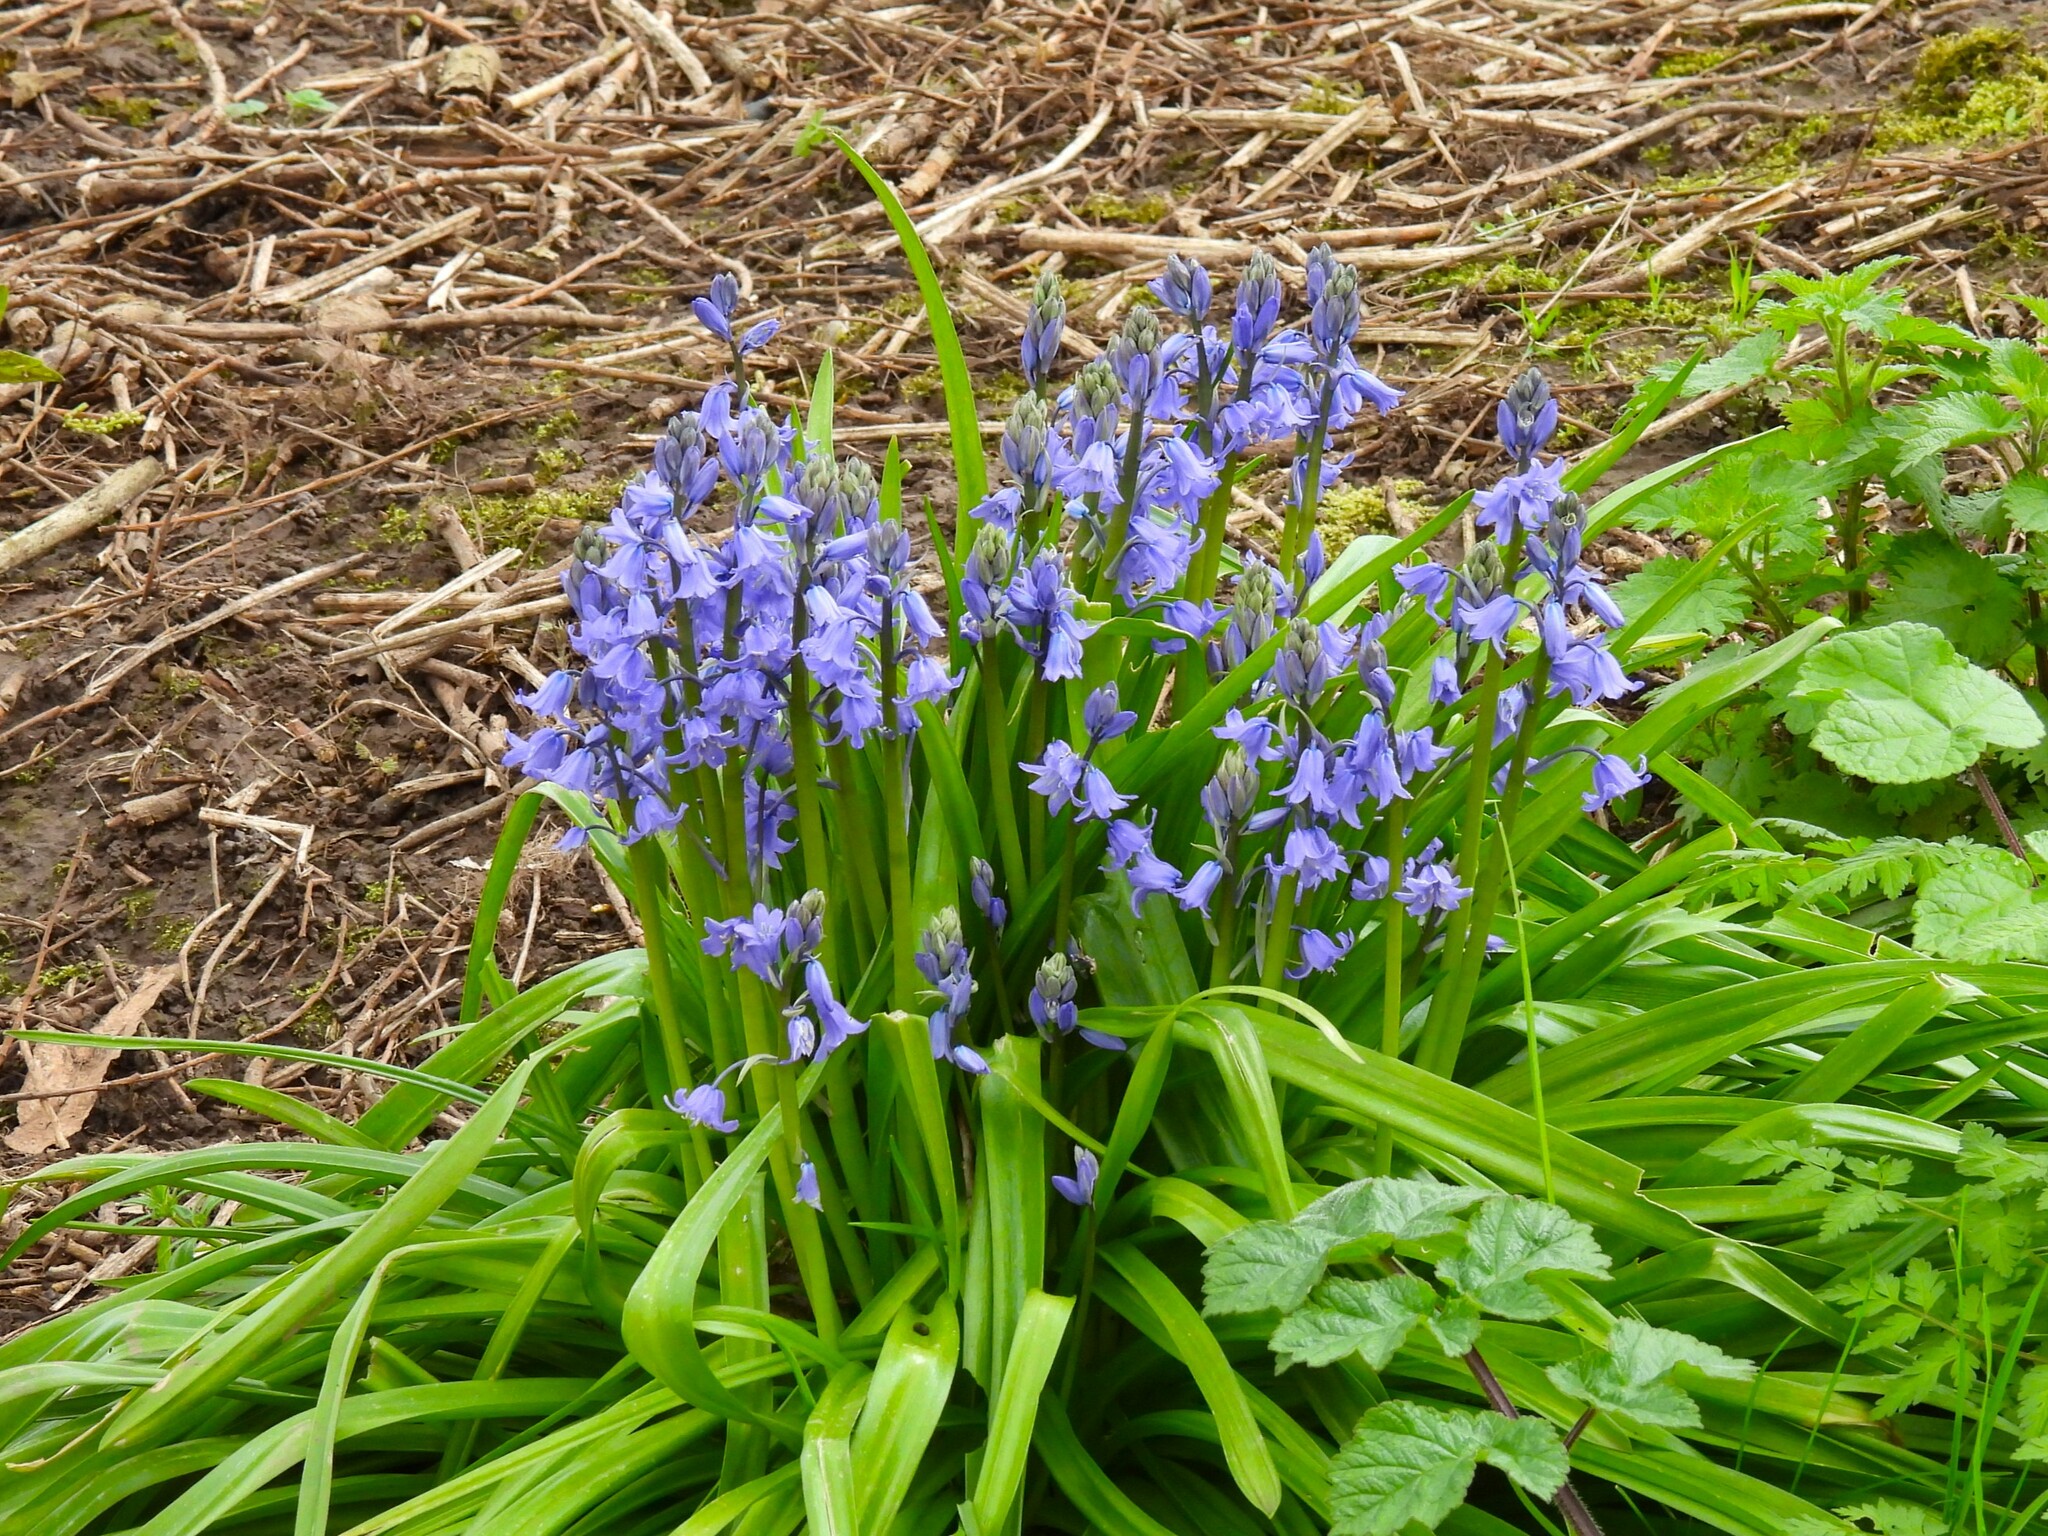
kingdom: Plantae
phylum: Tracheophyta
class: Liliopsida
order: Asparagales
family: Asparagaceae
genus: Hyacinthoides
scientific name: Hyacinthoides non-scripta
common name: Bluebell
